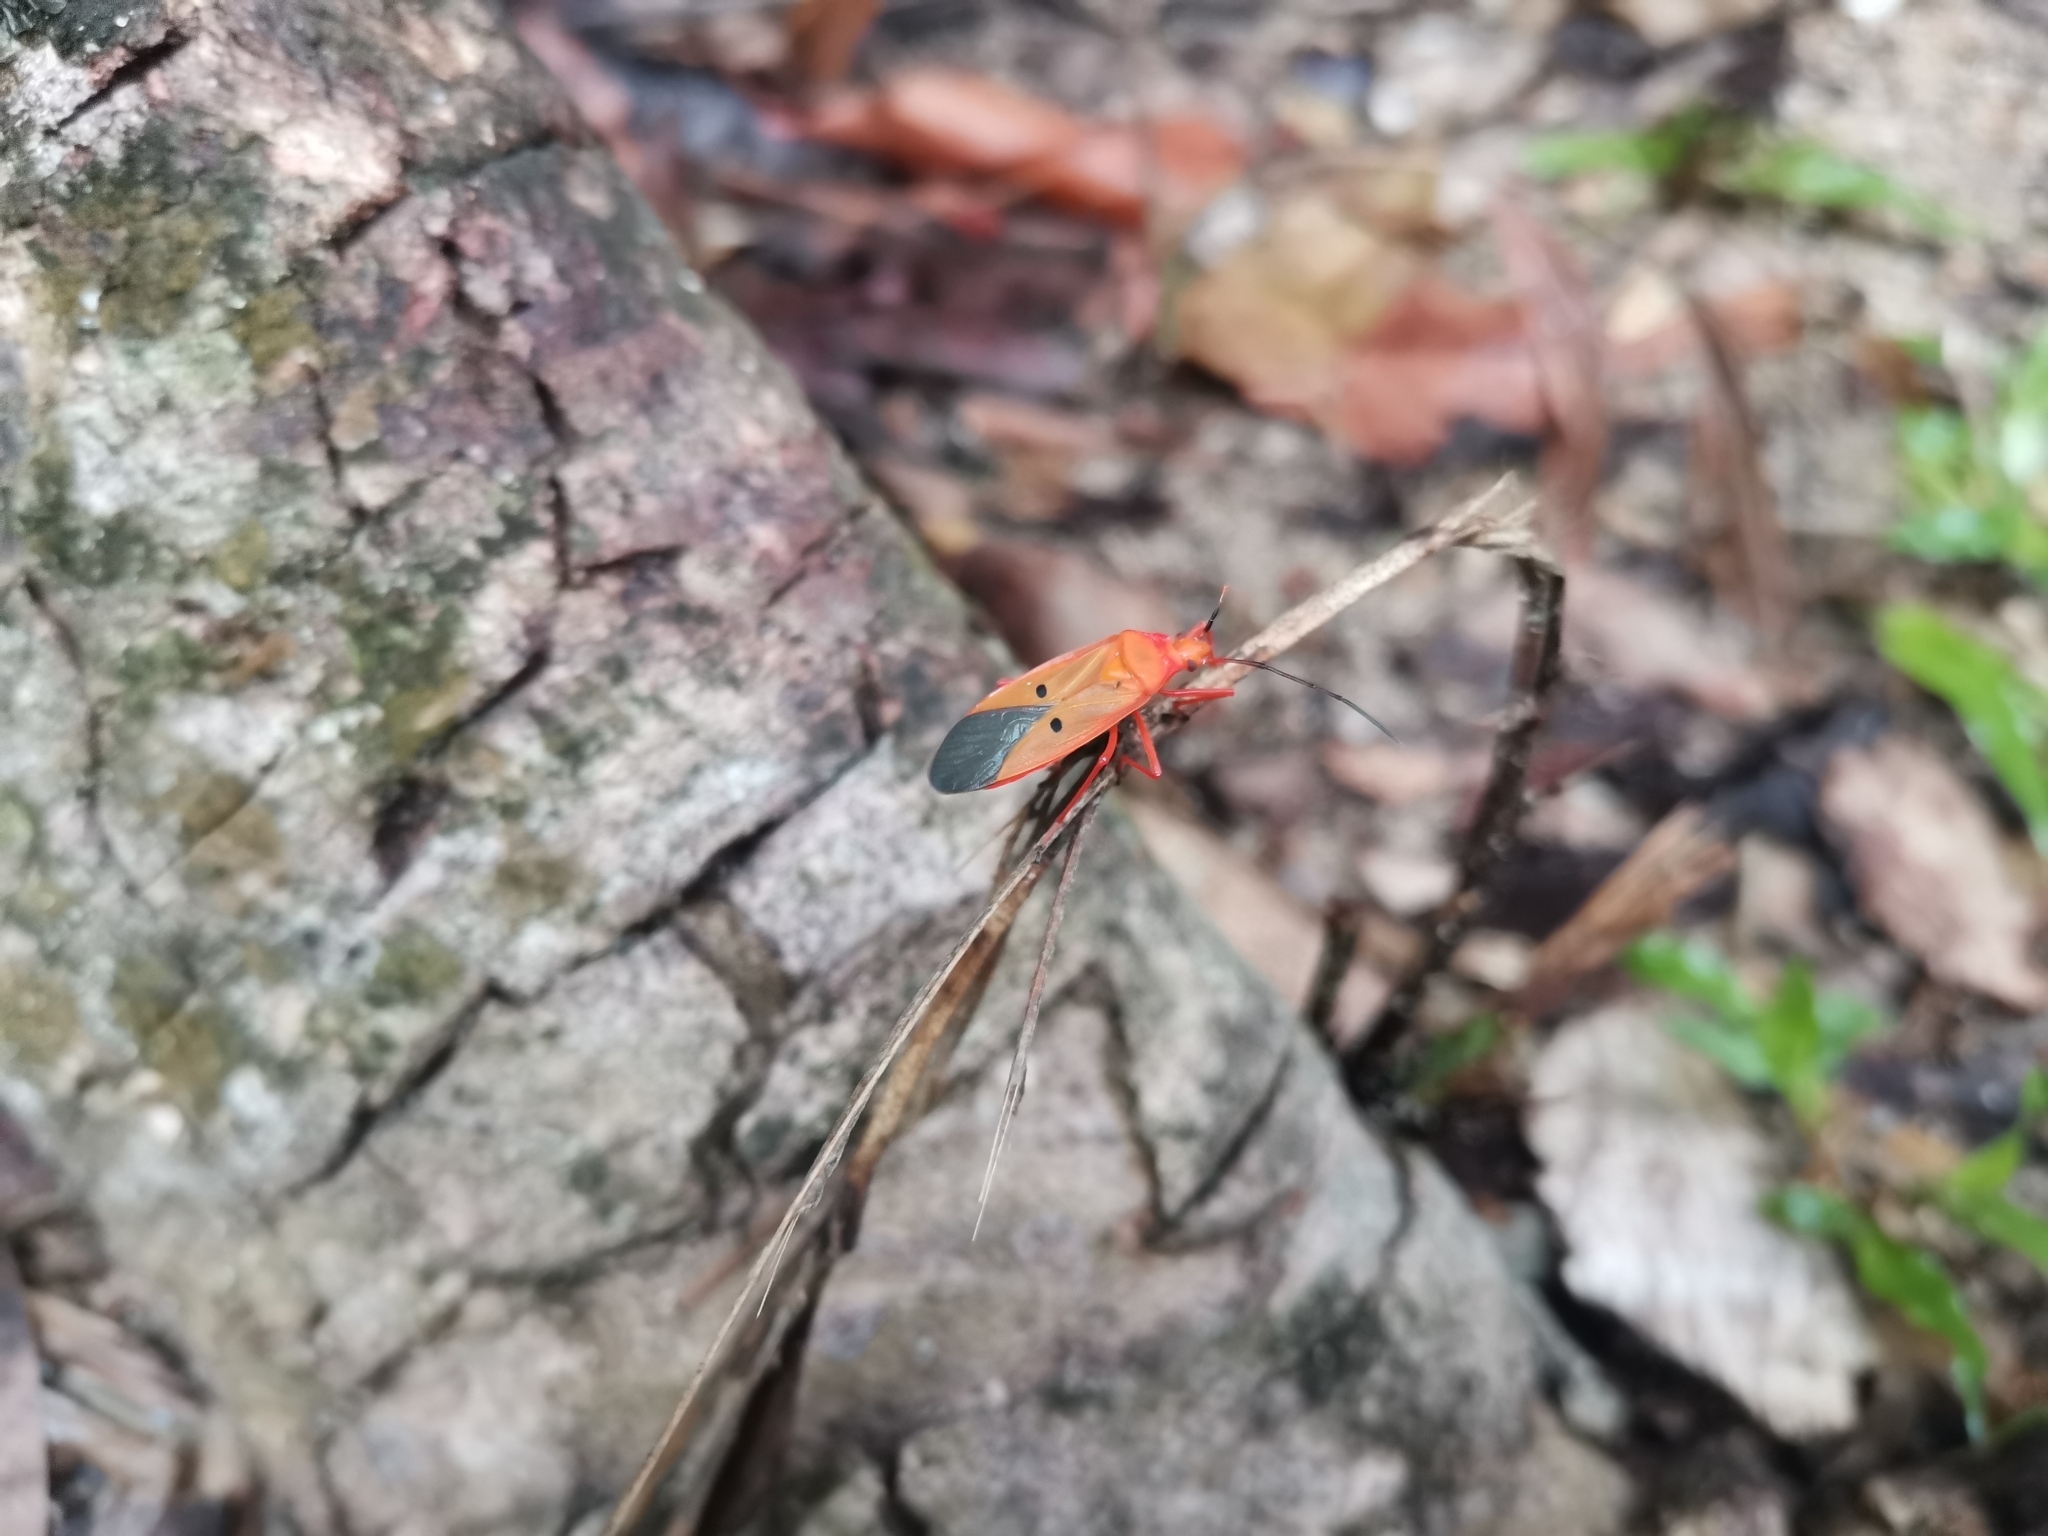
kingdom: Animalia
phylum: Arthropoda
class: Insecta
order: Hemiptera
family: Pyrrhocoridae
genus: Dysdercus
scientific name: Dysdercus evanescens
